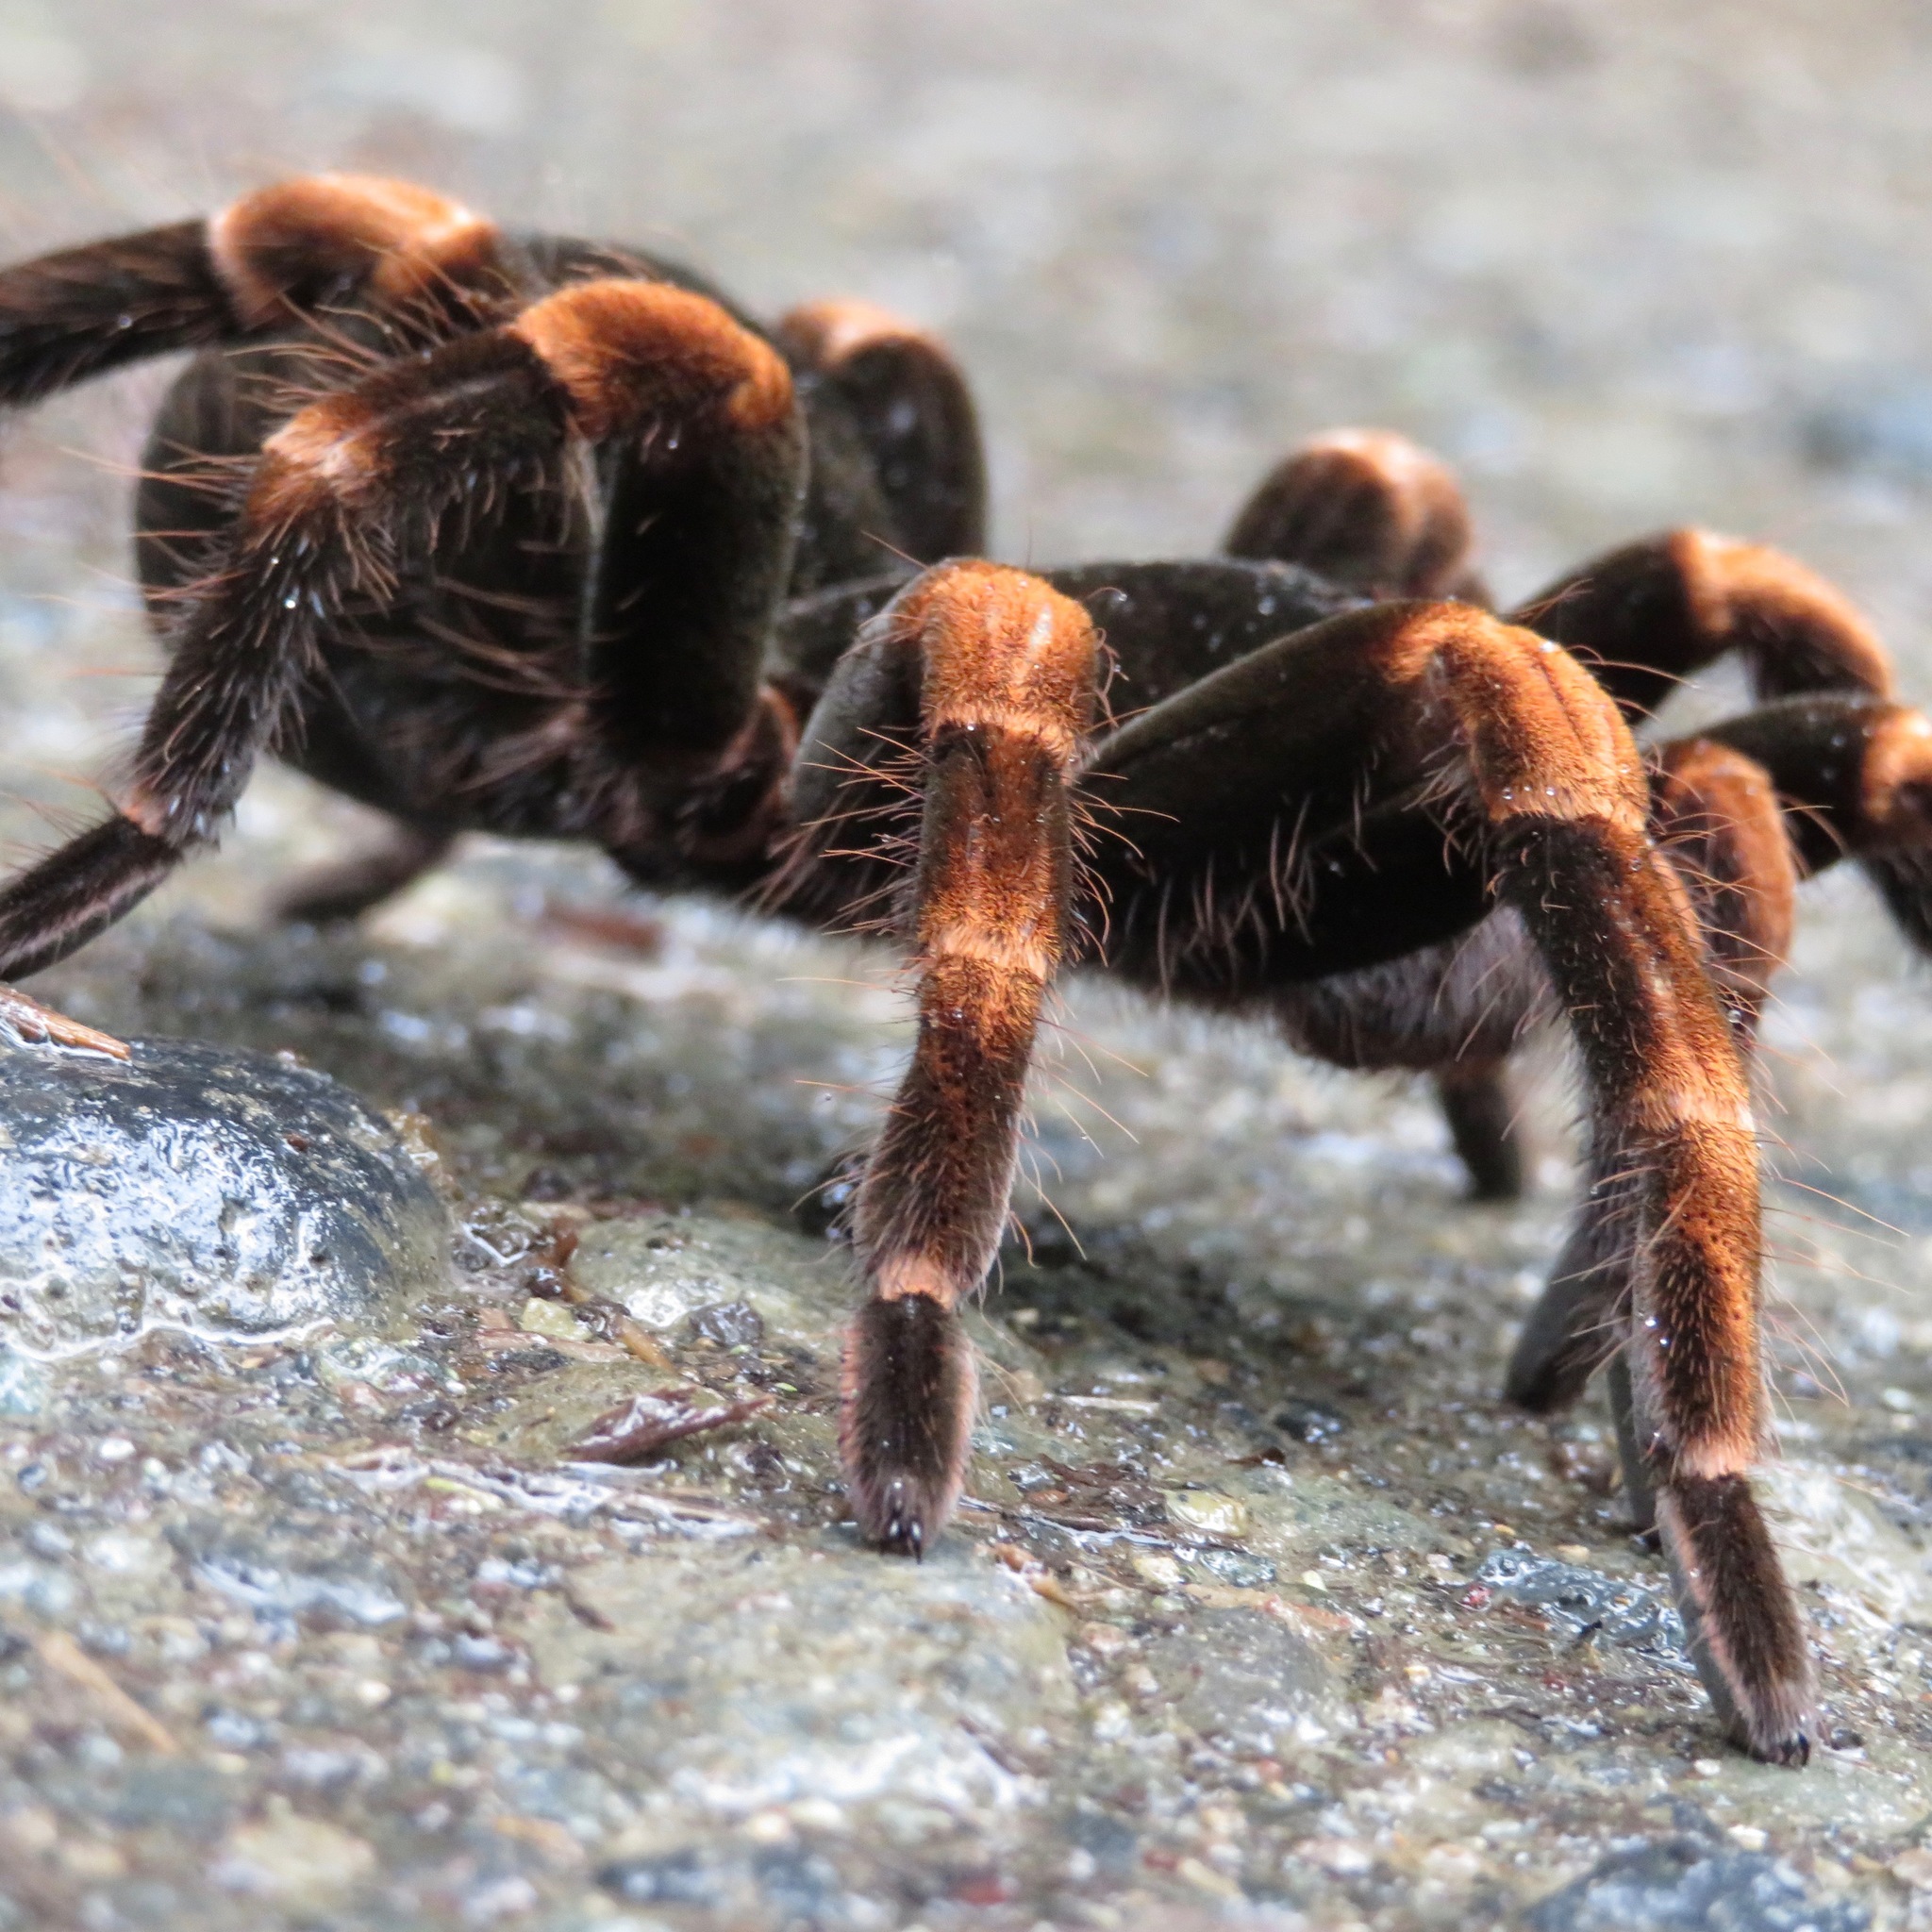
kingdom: Animalia
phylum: Arthropoda
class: Arachnida
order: Araneae
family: Theraphosidae
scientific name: Theraphosidae
